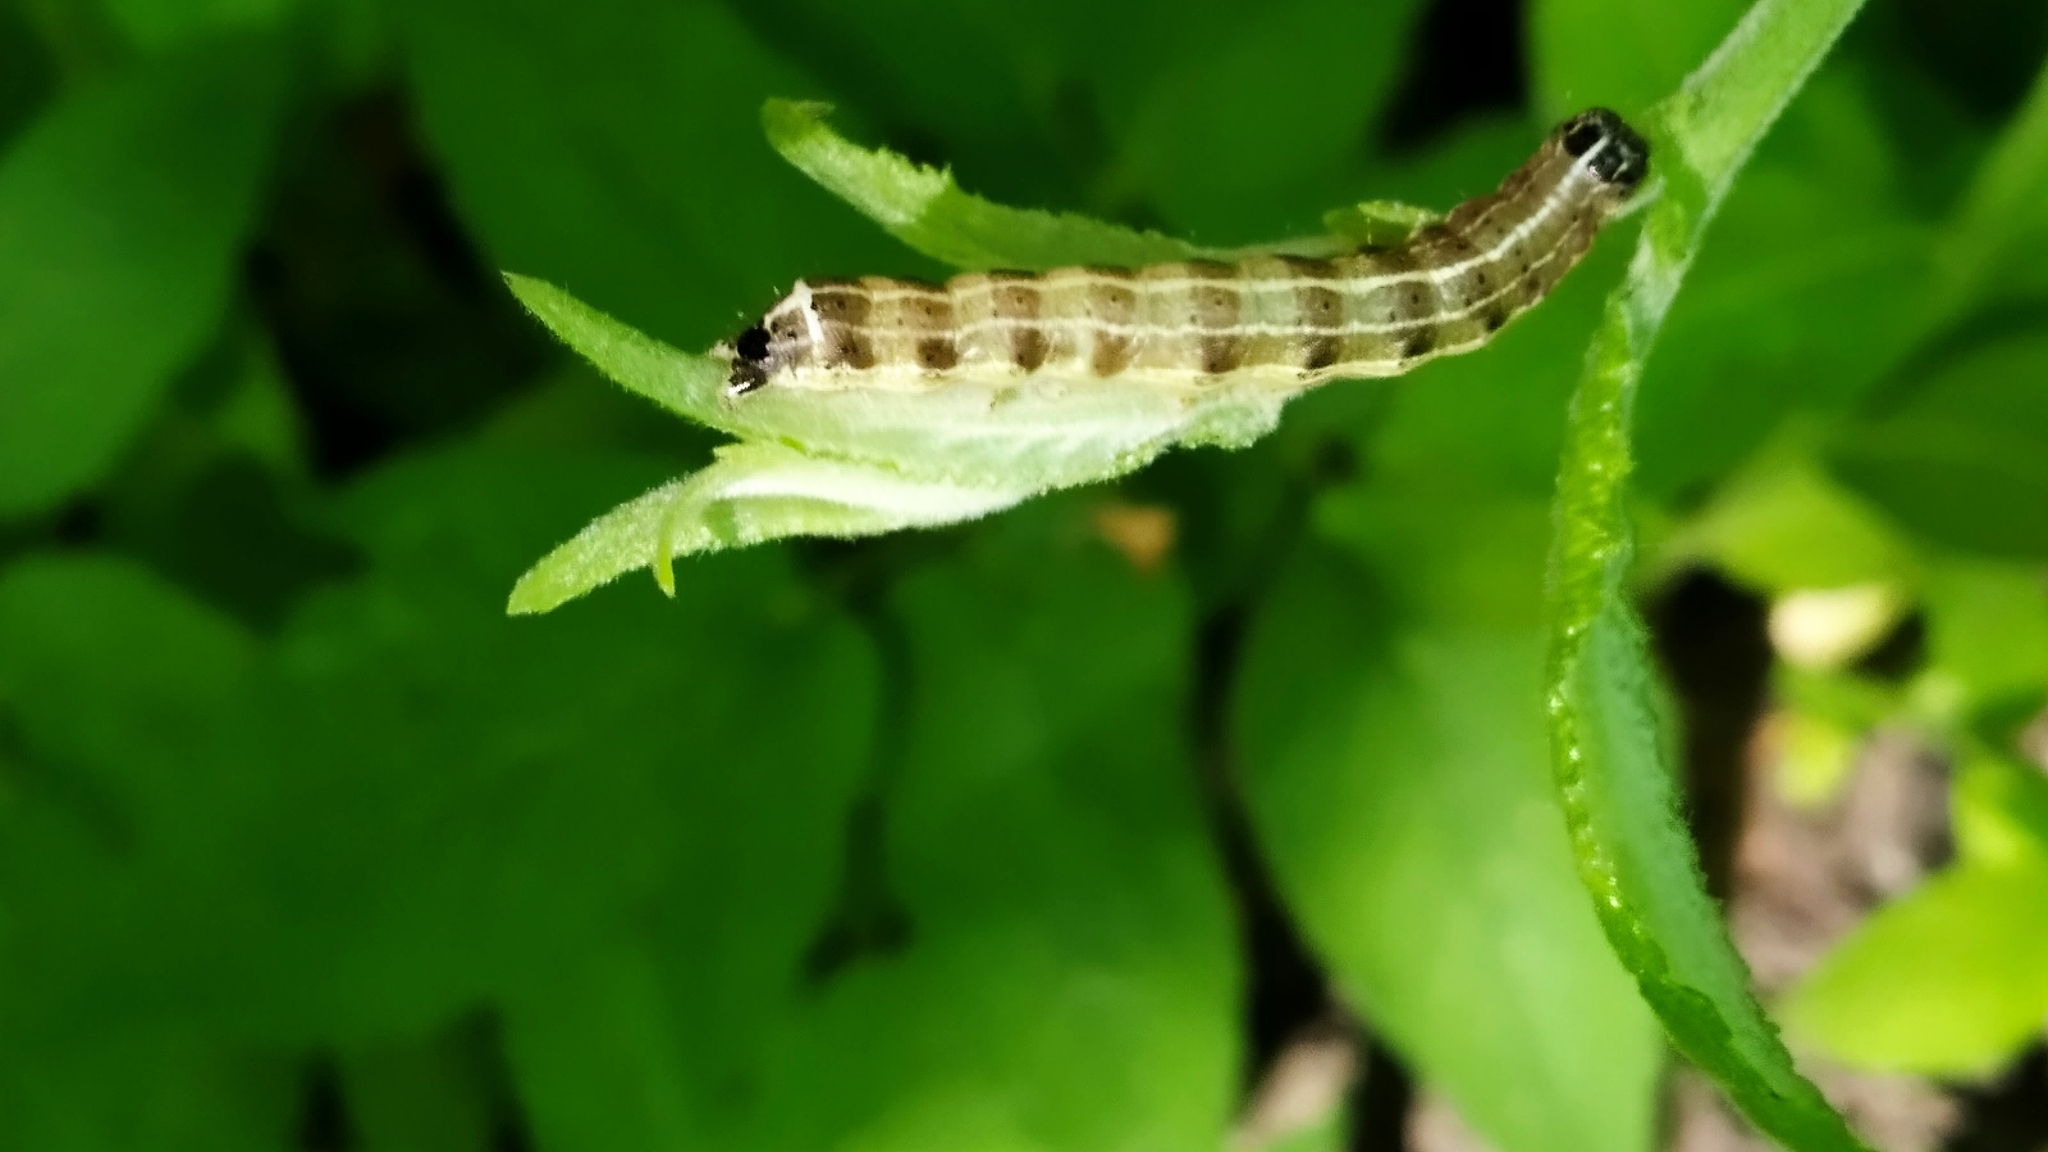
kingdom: Animalia
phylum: Arthropoda
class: Insecta
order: Lepidoptera
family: Noctuidae
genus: Orthosia
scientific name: Orthosia cruda
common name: Small quaker
